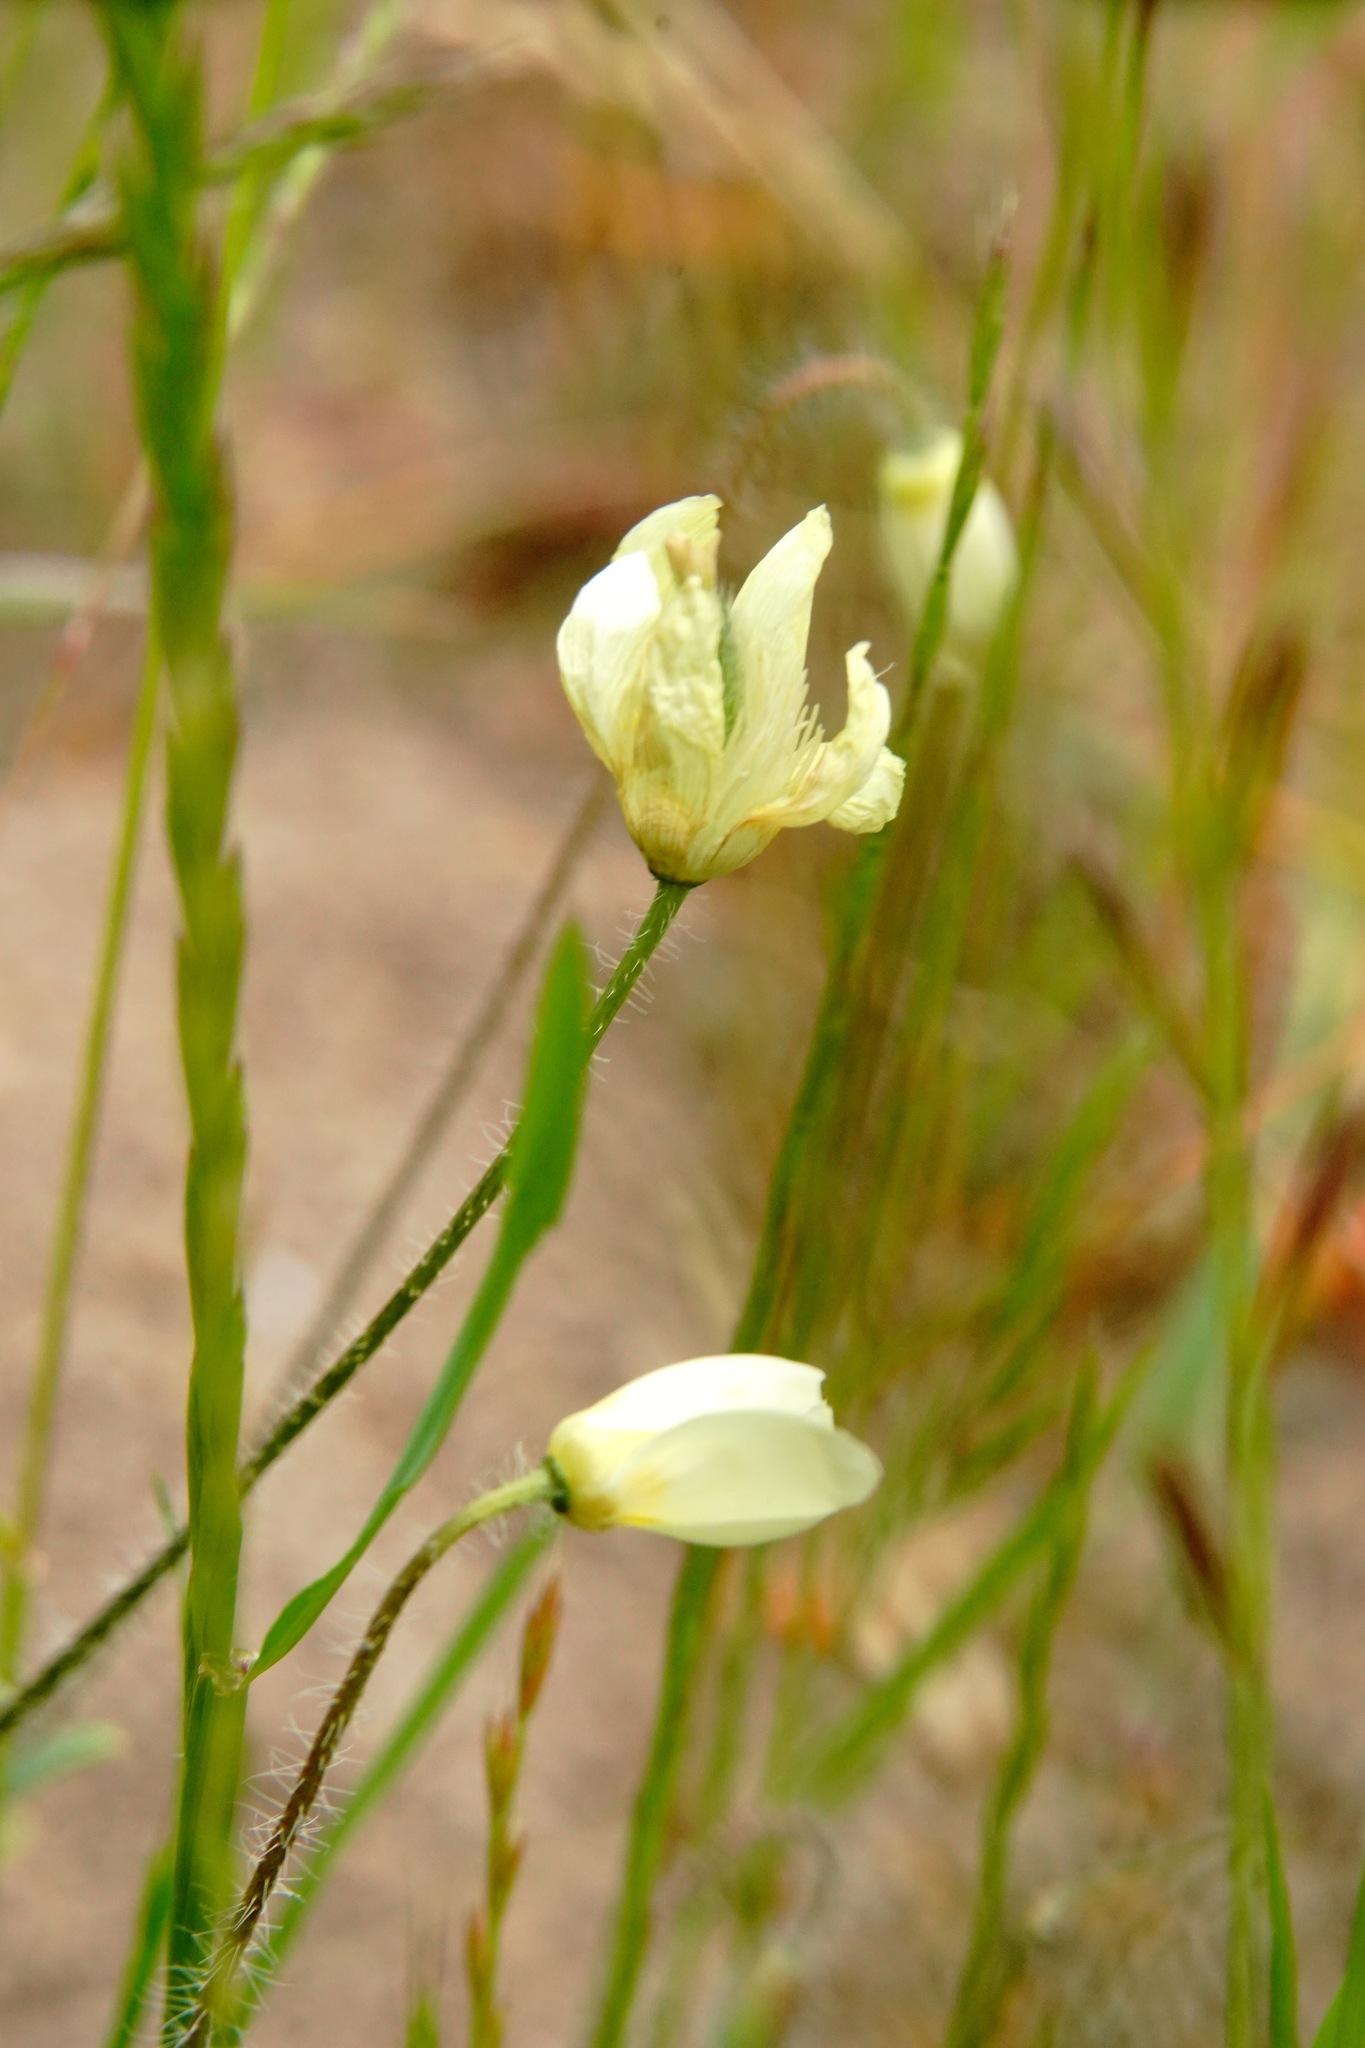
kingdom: Plantae
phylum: Tracheophyta
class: Magnoliopsida
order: Ranunculales
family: Papaveraceae
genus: Platystemon
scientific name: Platystemon californicus
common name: Cream-cups
